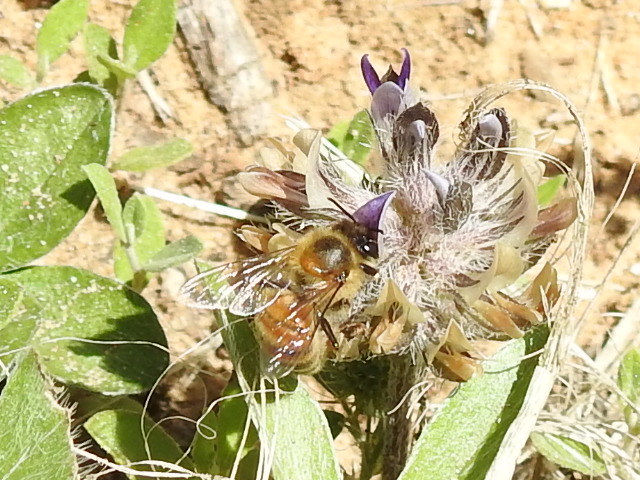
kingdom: Animalia
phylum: Arthropoda
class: Insecta
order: Hymenoptera
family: Apidae
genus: Apis
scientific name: Apis mellifera
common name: Honey bee
